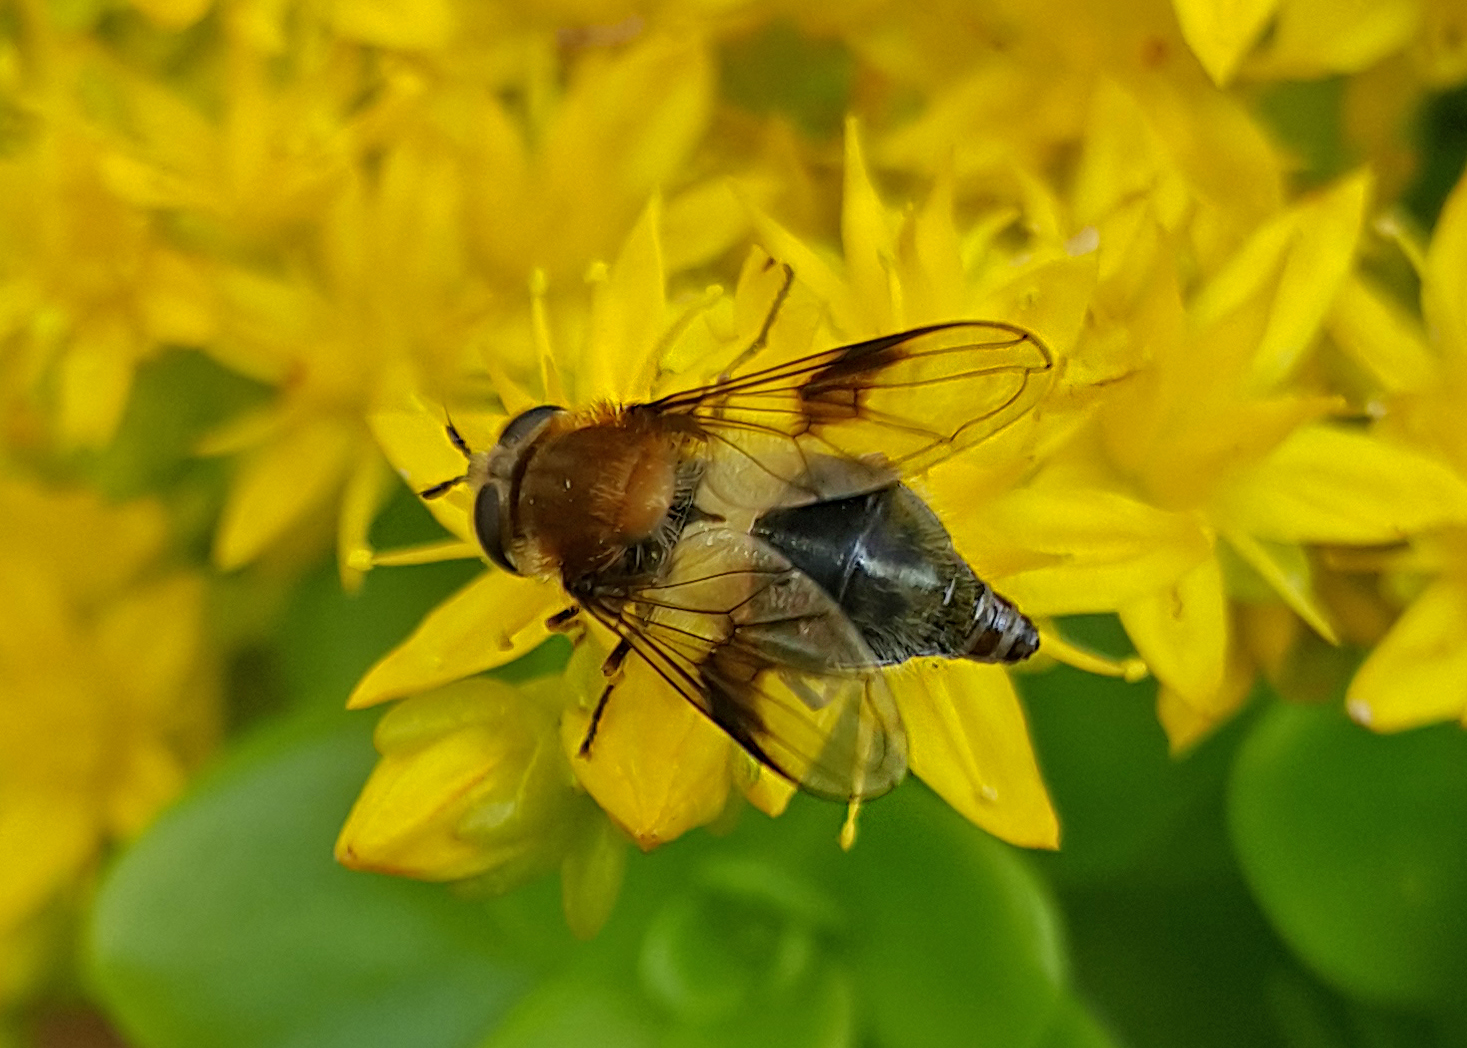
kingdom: Animalia
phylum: Arthropoda
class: Insecta
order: Diptera
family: Syrphidae
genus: Leucozona
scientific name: Leucozona lucorum
